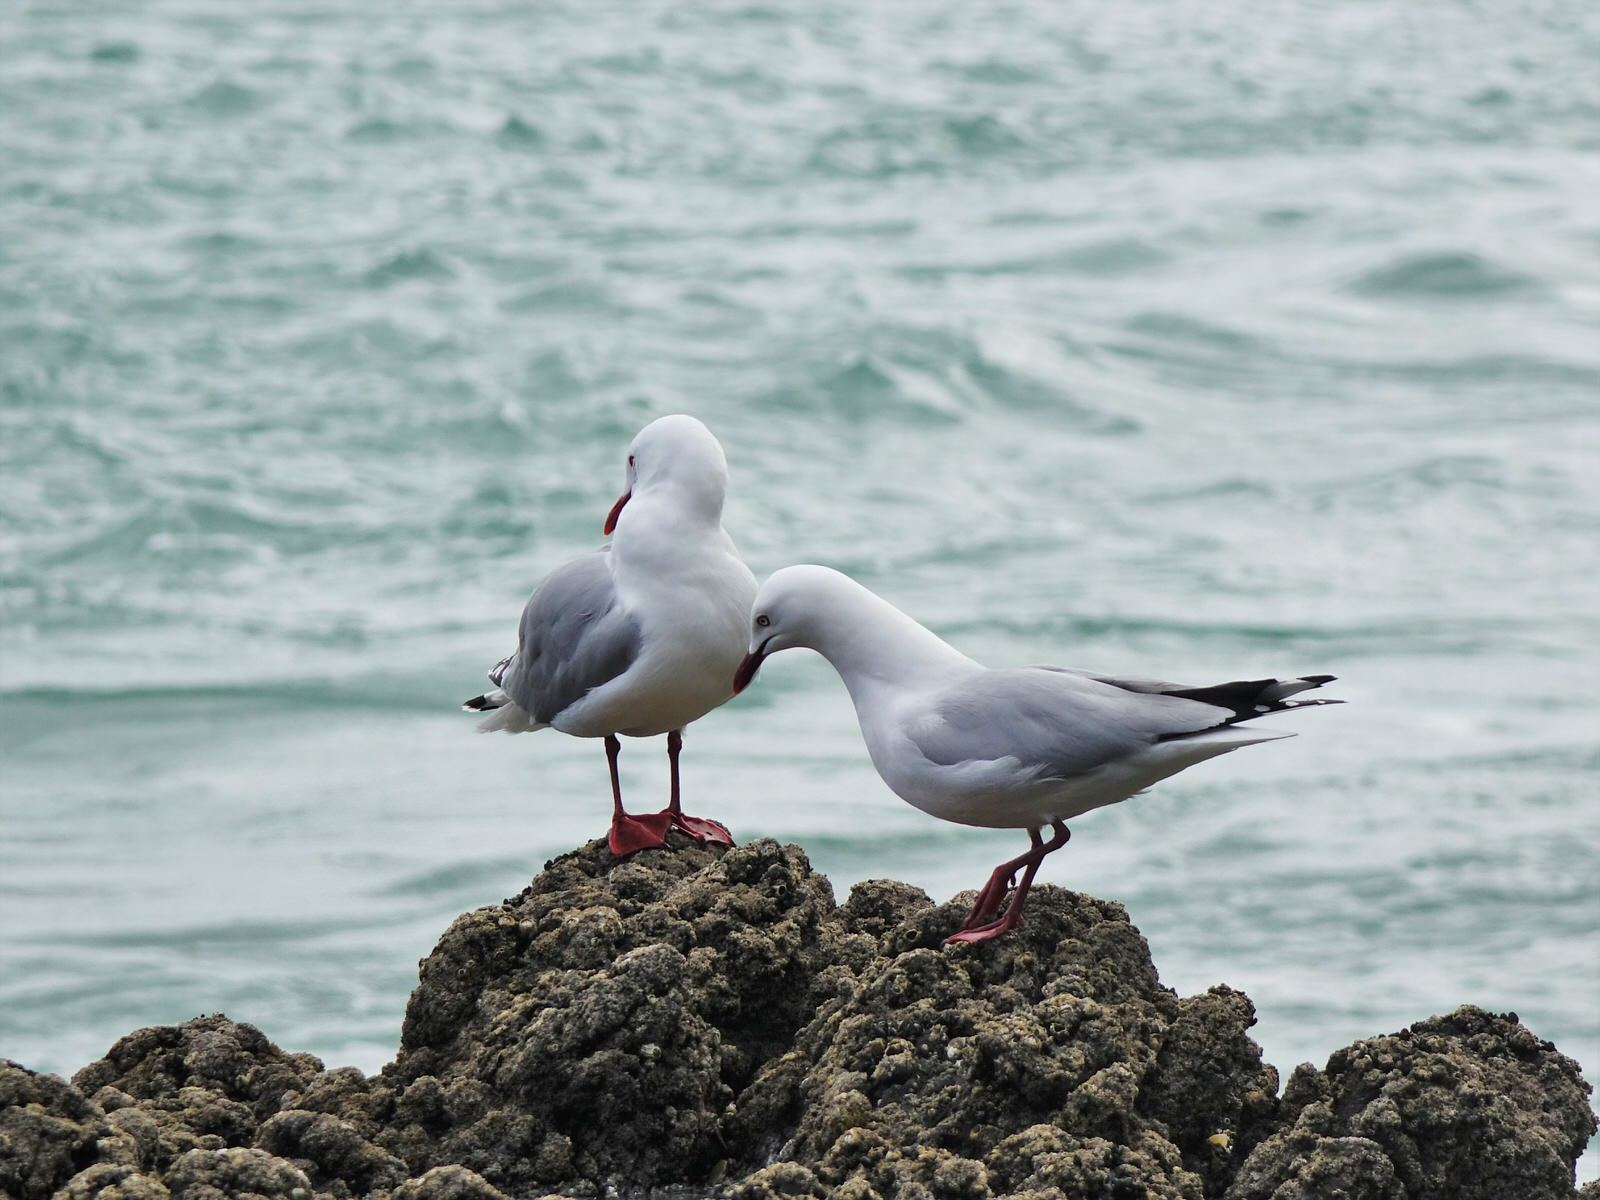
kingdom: Animalia
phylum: Chordata
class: Aves
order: Charadriiformes
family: Laridae
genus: Chroicocephalus
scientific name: Chroicocephalus novaehollandiae
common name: Silver gull
